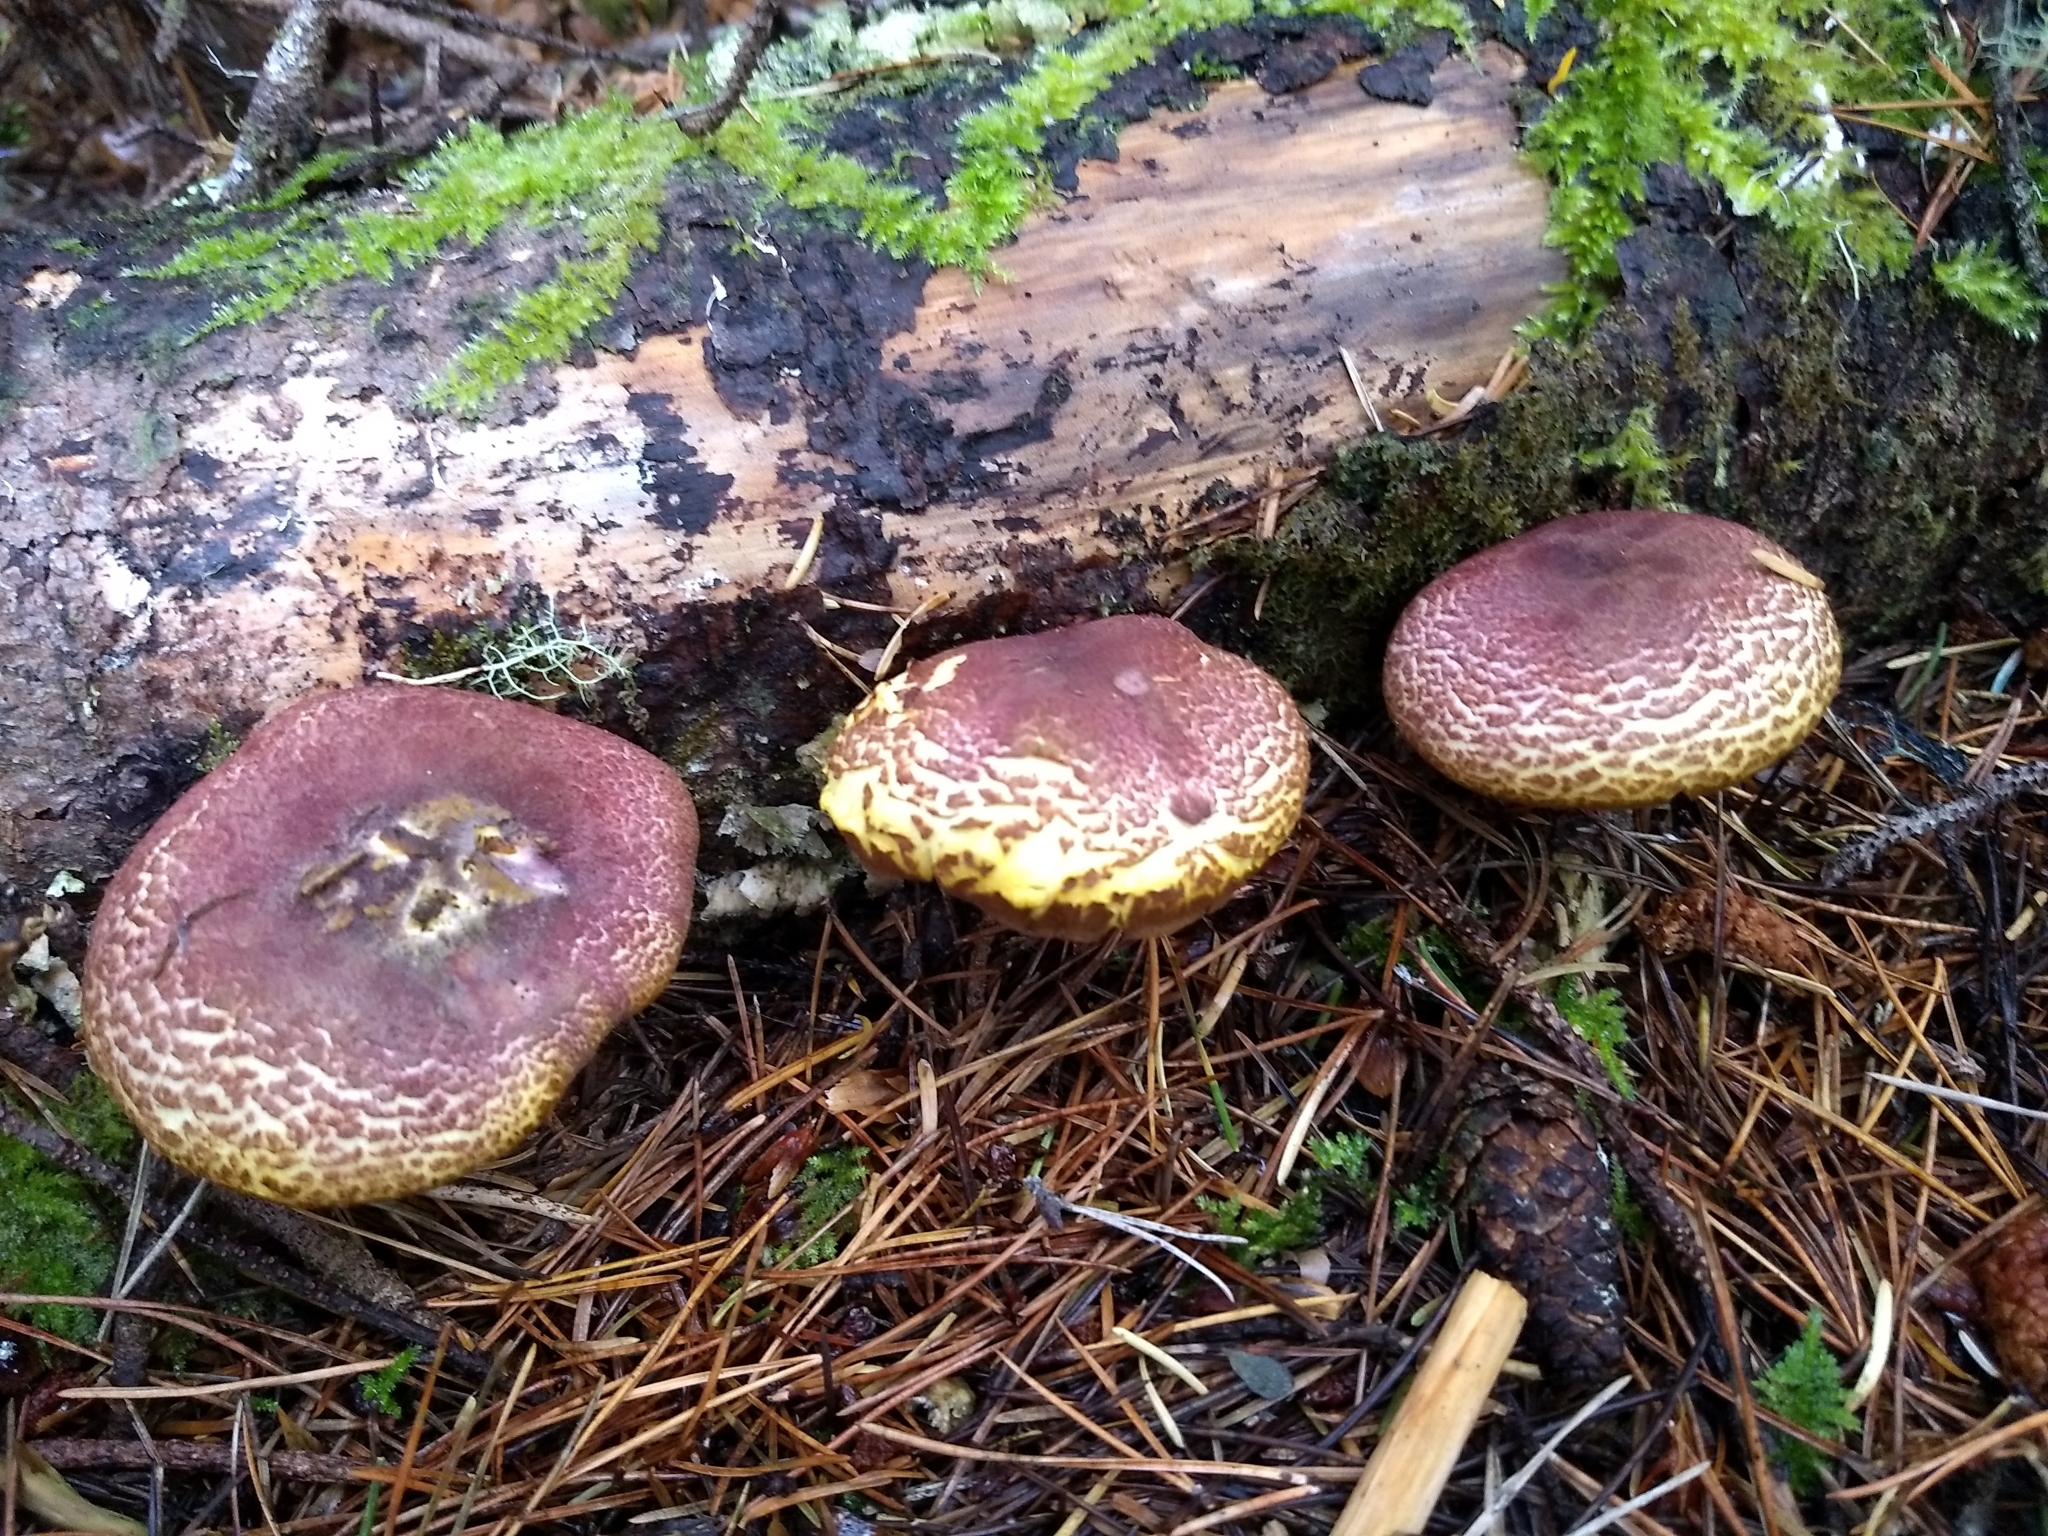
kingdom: Fungi
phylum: Basidiomycota
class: Agaricomycetes
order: Agaricales
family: Tricholomataceae
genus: Tricholomopsis
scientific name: Tricholomopsis rutilans
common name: Plums and custard
